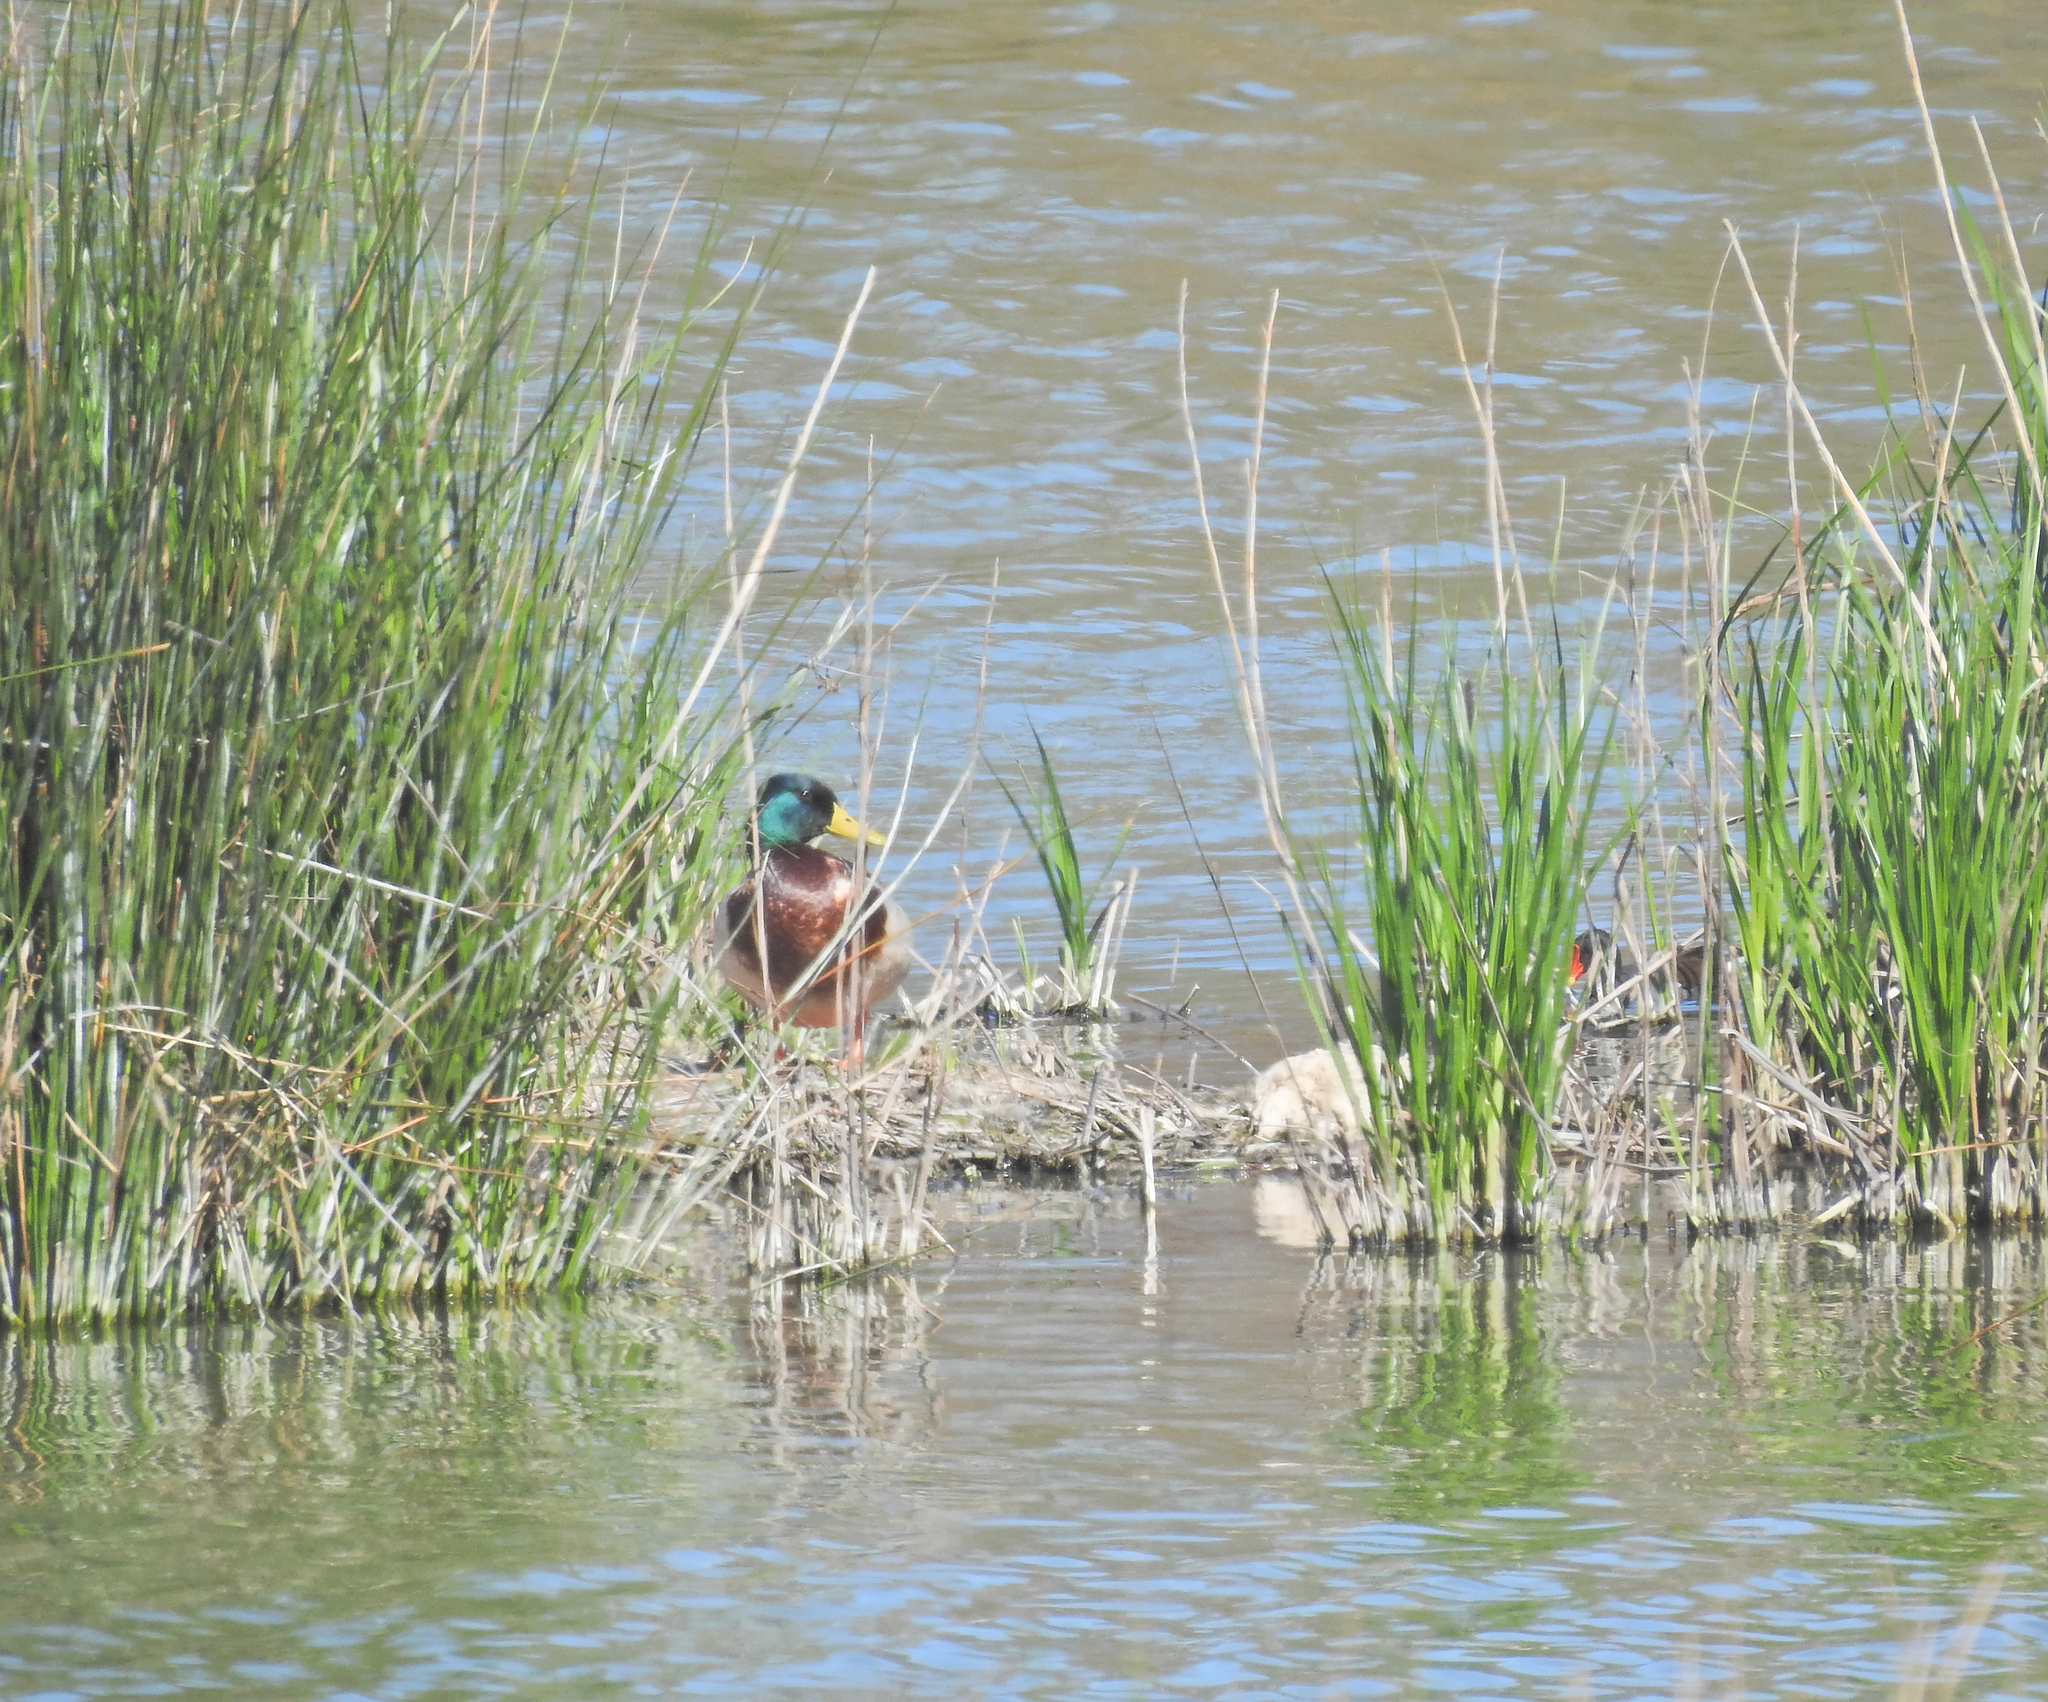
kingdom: Animalia
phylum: Chordata
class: Aves
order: Anseriformes
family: Anatidae
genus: Anas
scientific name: Anas platyrhynchos
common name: Mallard
